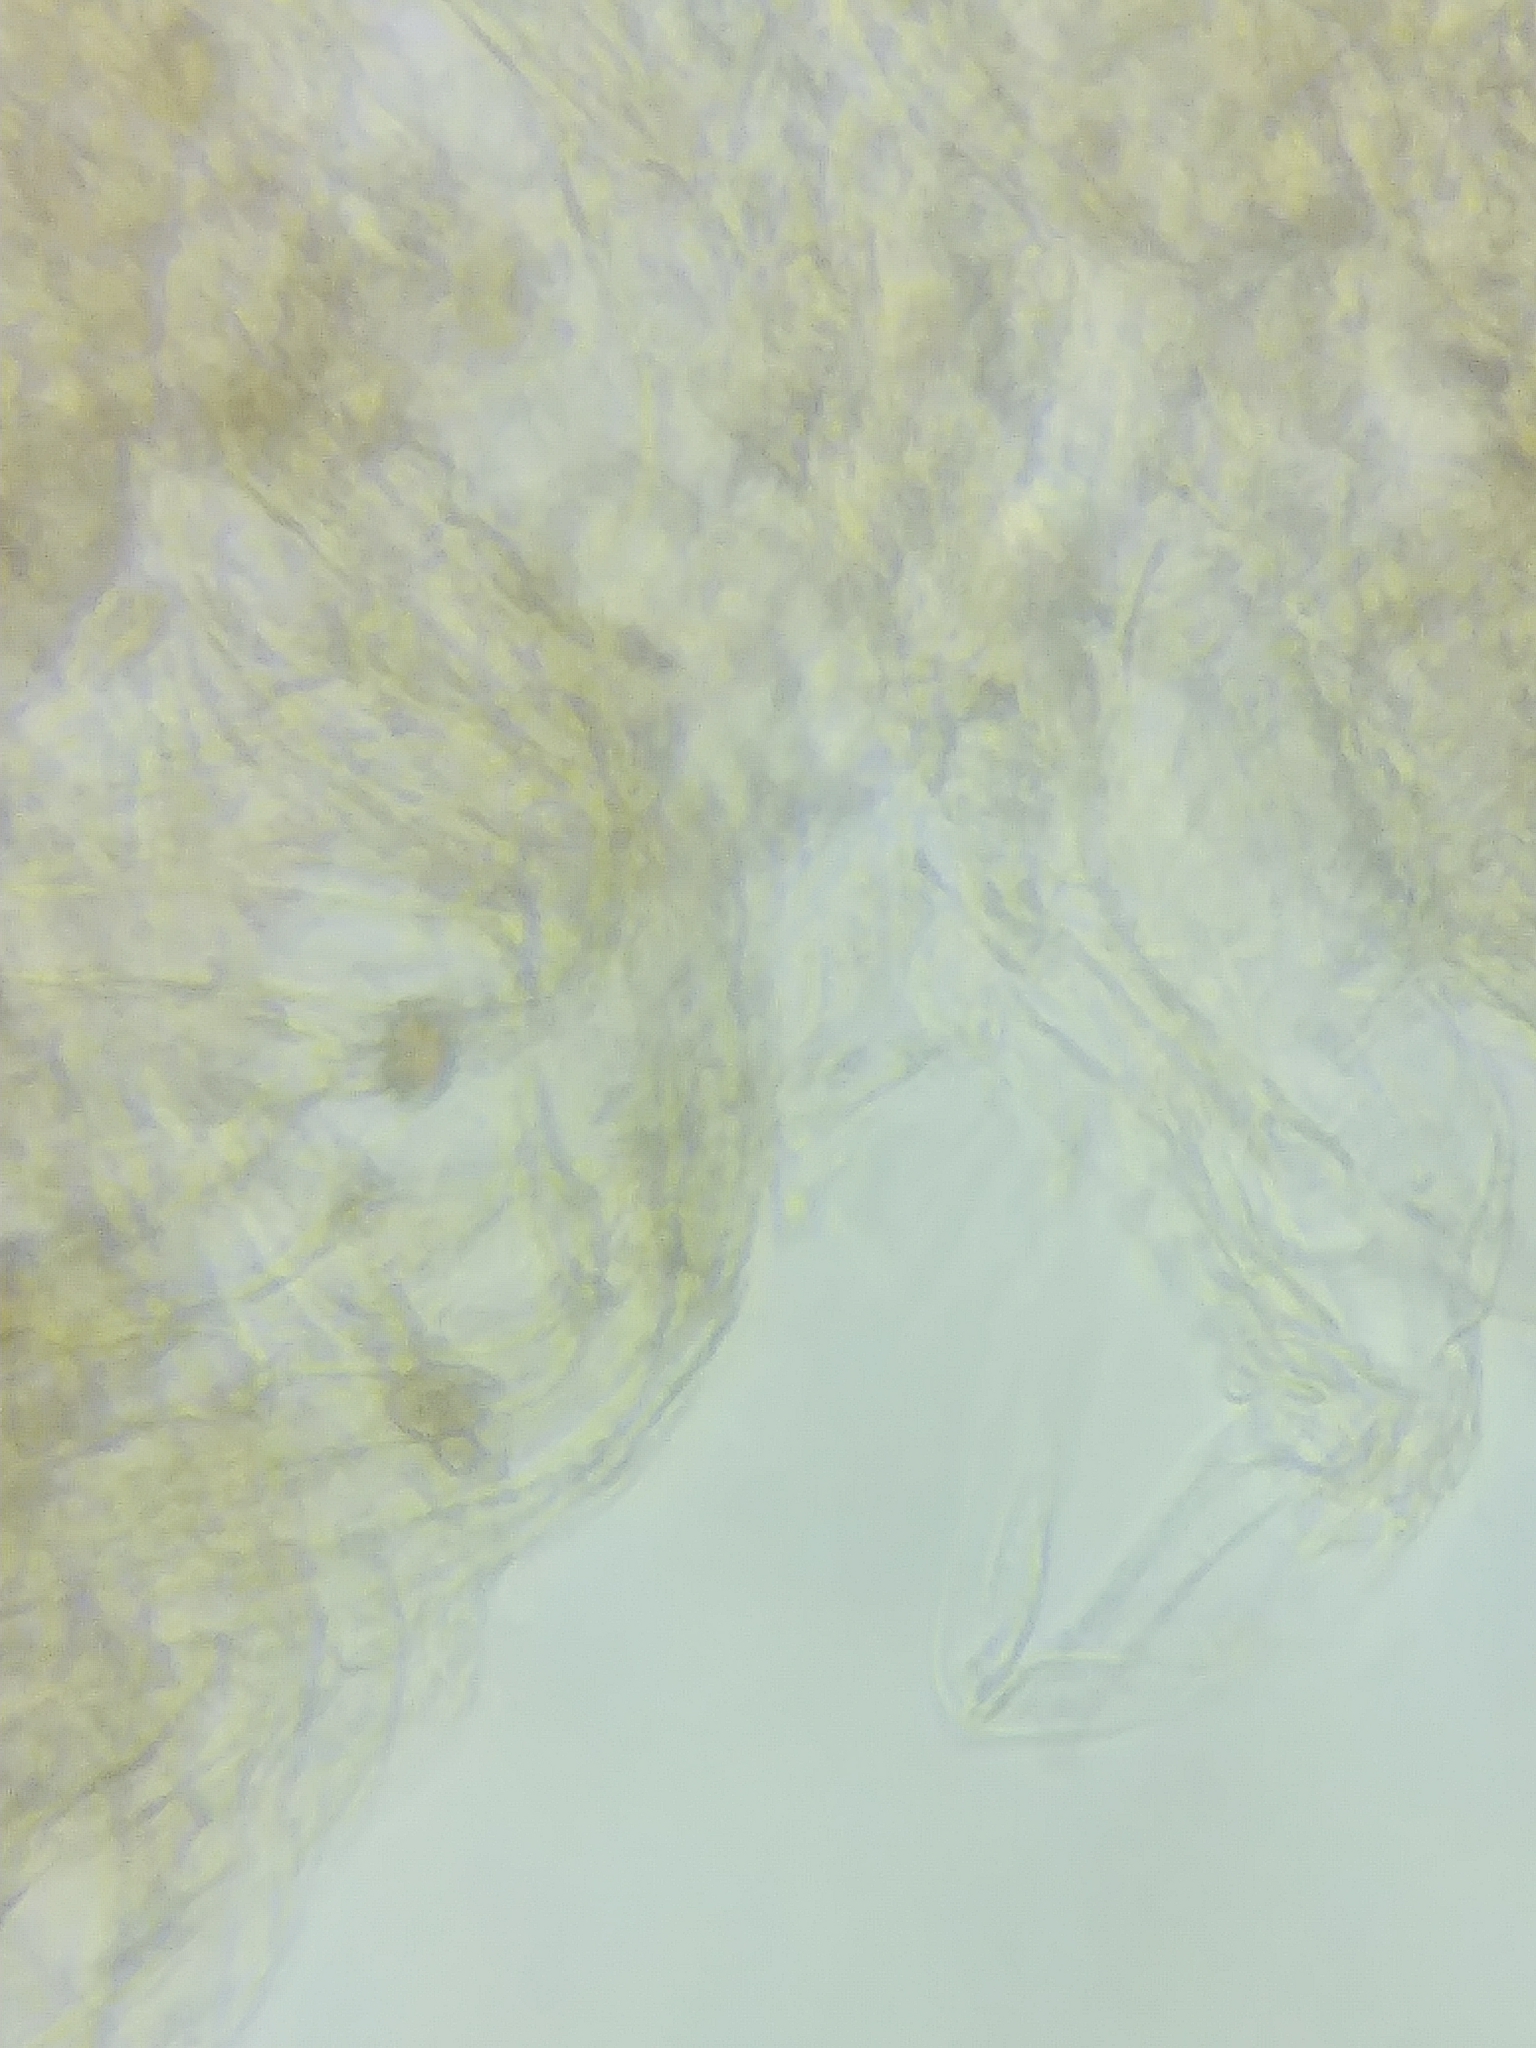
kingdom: Fungi
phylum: Basidiomycota
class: Agaricomycetes
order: Agaricales
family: Cortinariaceae
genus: Cortinarius
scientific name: Cortinarius armeniacus
